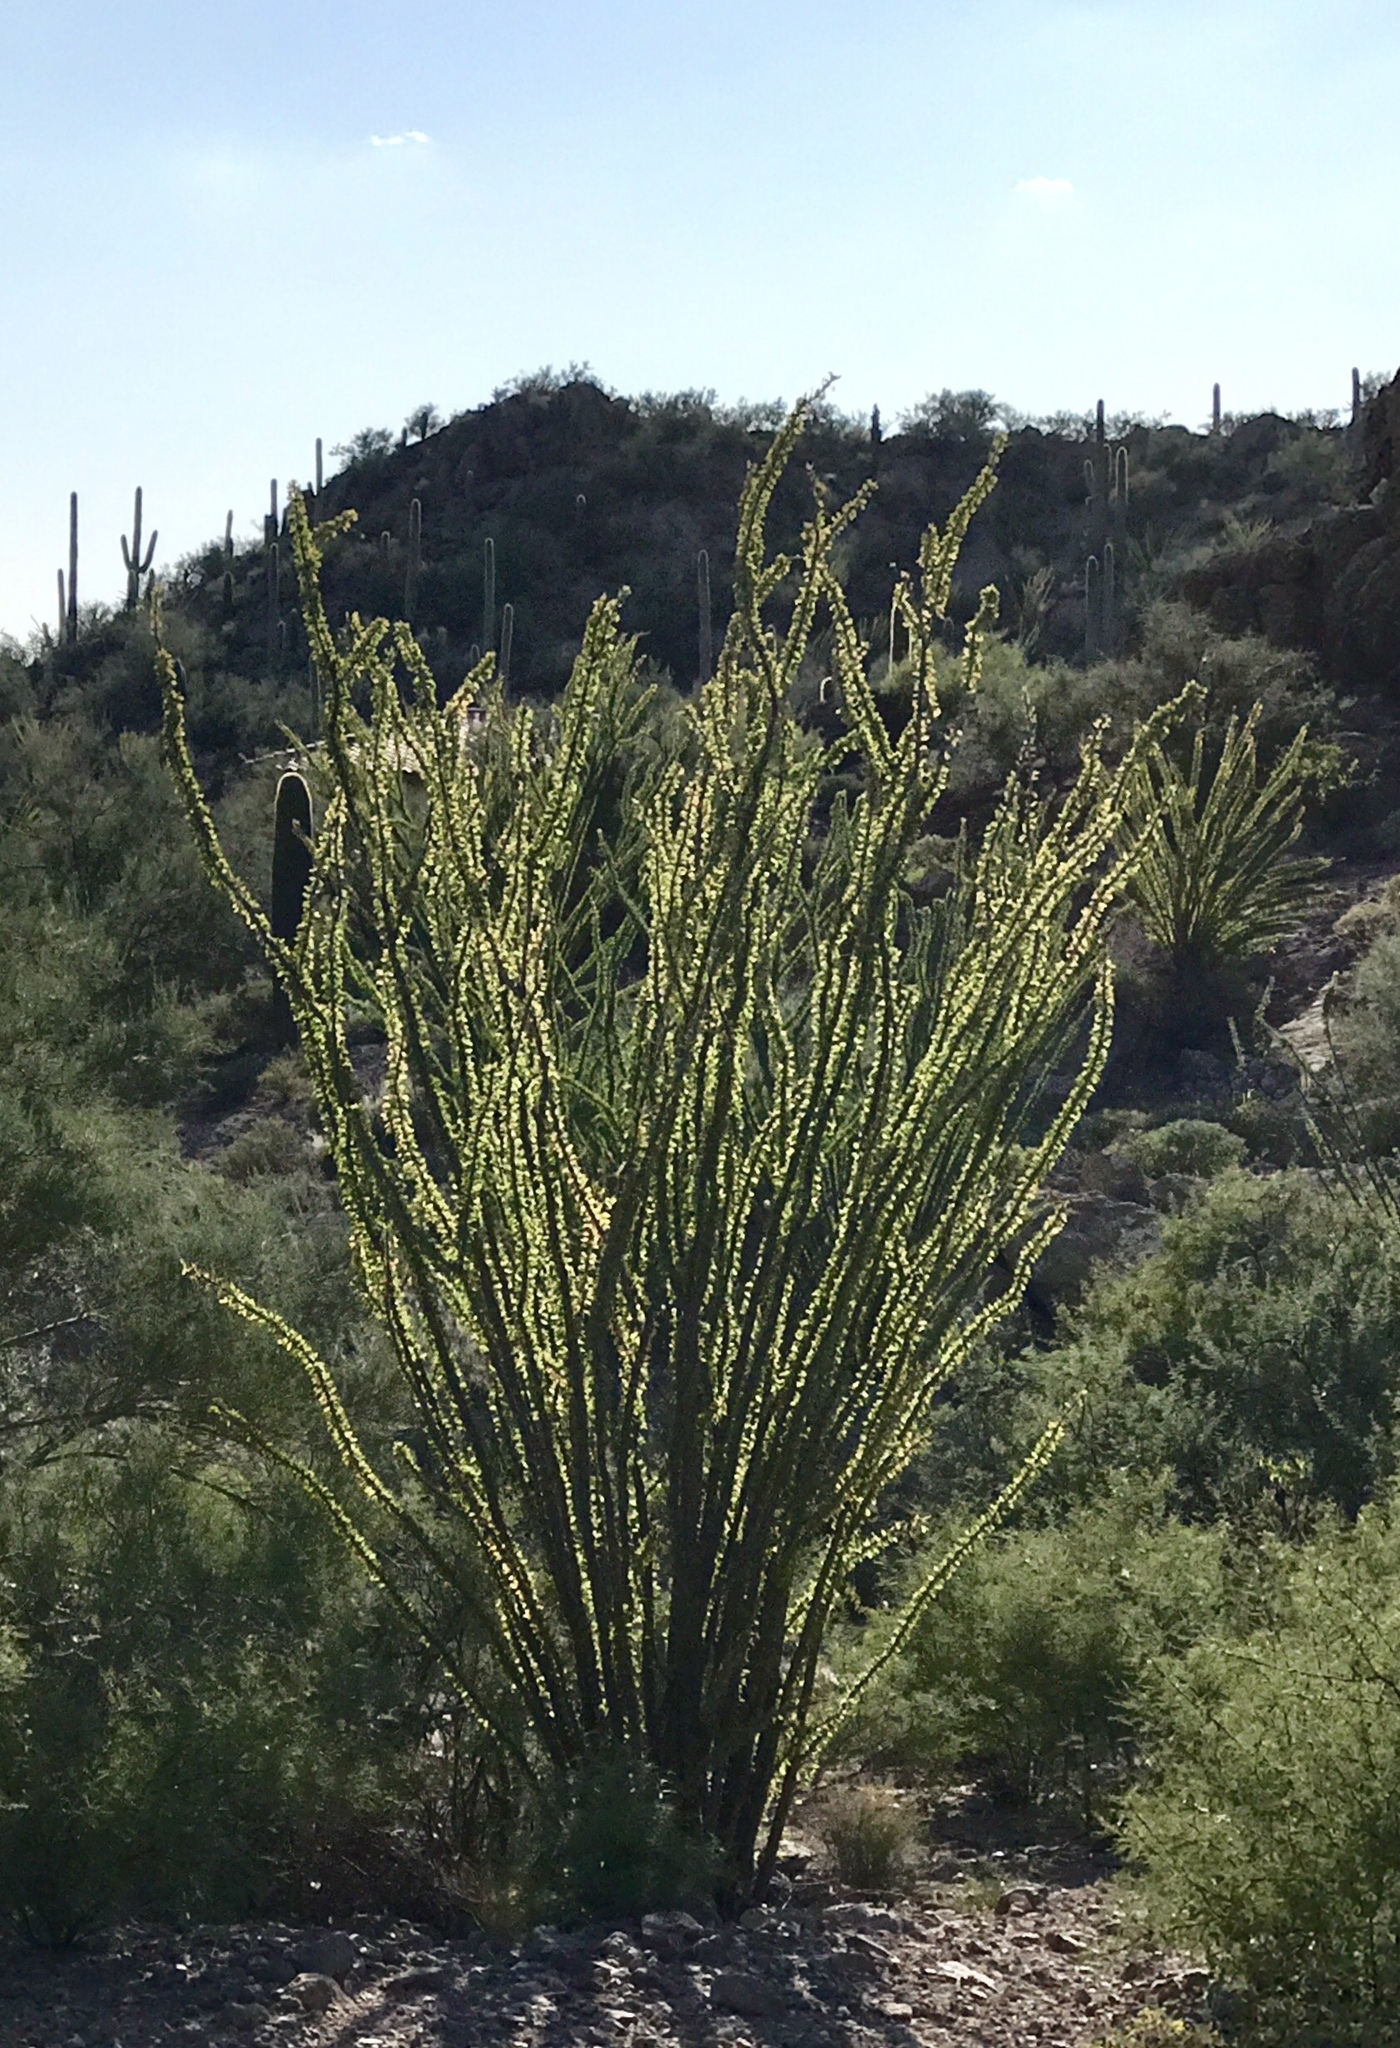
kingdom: Plantae
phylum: Tracheophyta
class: Magnoliopsida
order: Ericales
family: Fouquieriaceae
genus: Fouquieria
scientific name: Fouquieria splendens
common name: Vine-cactus
